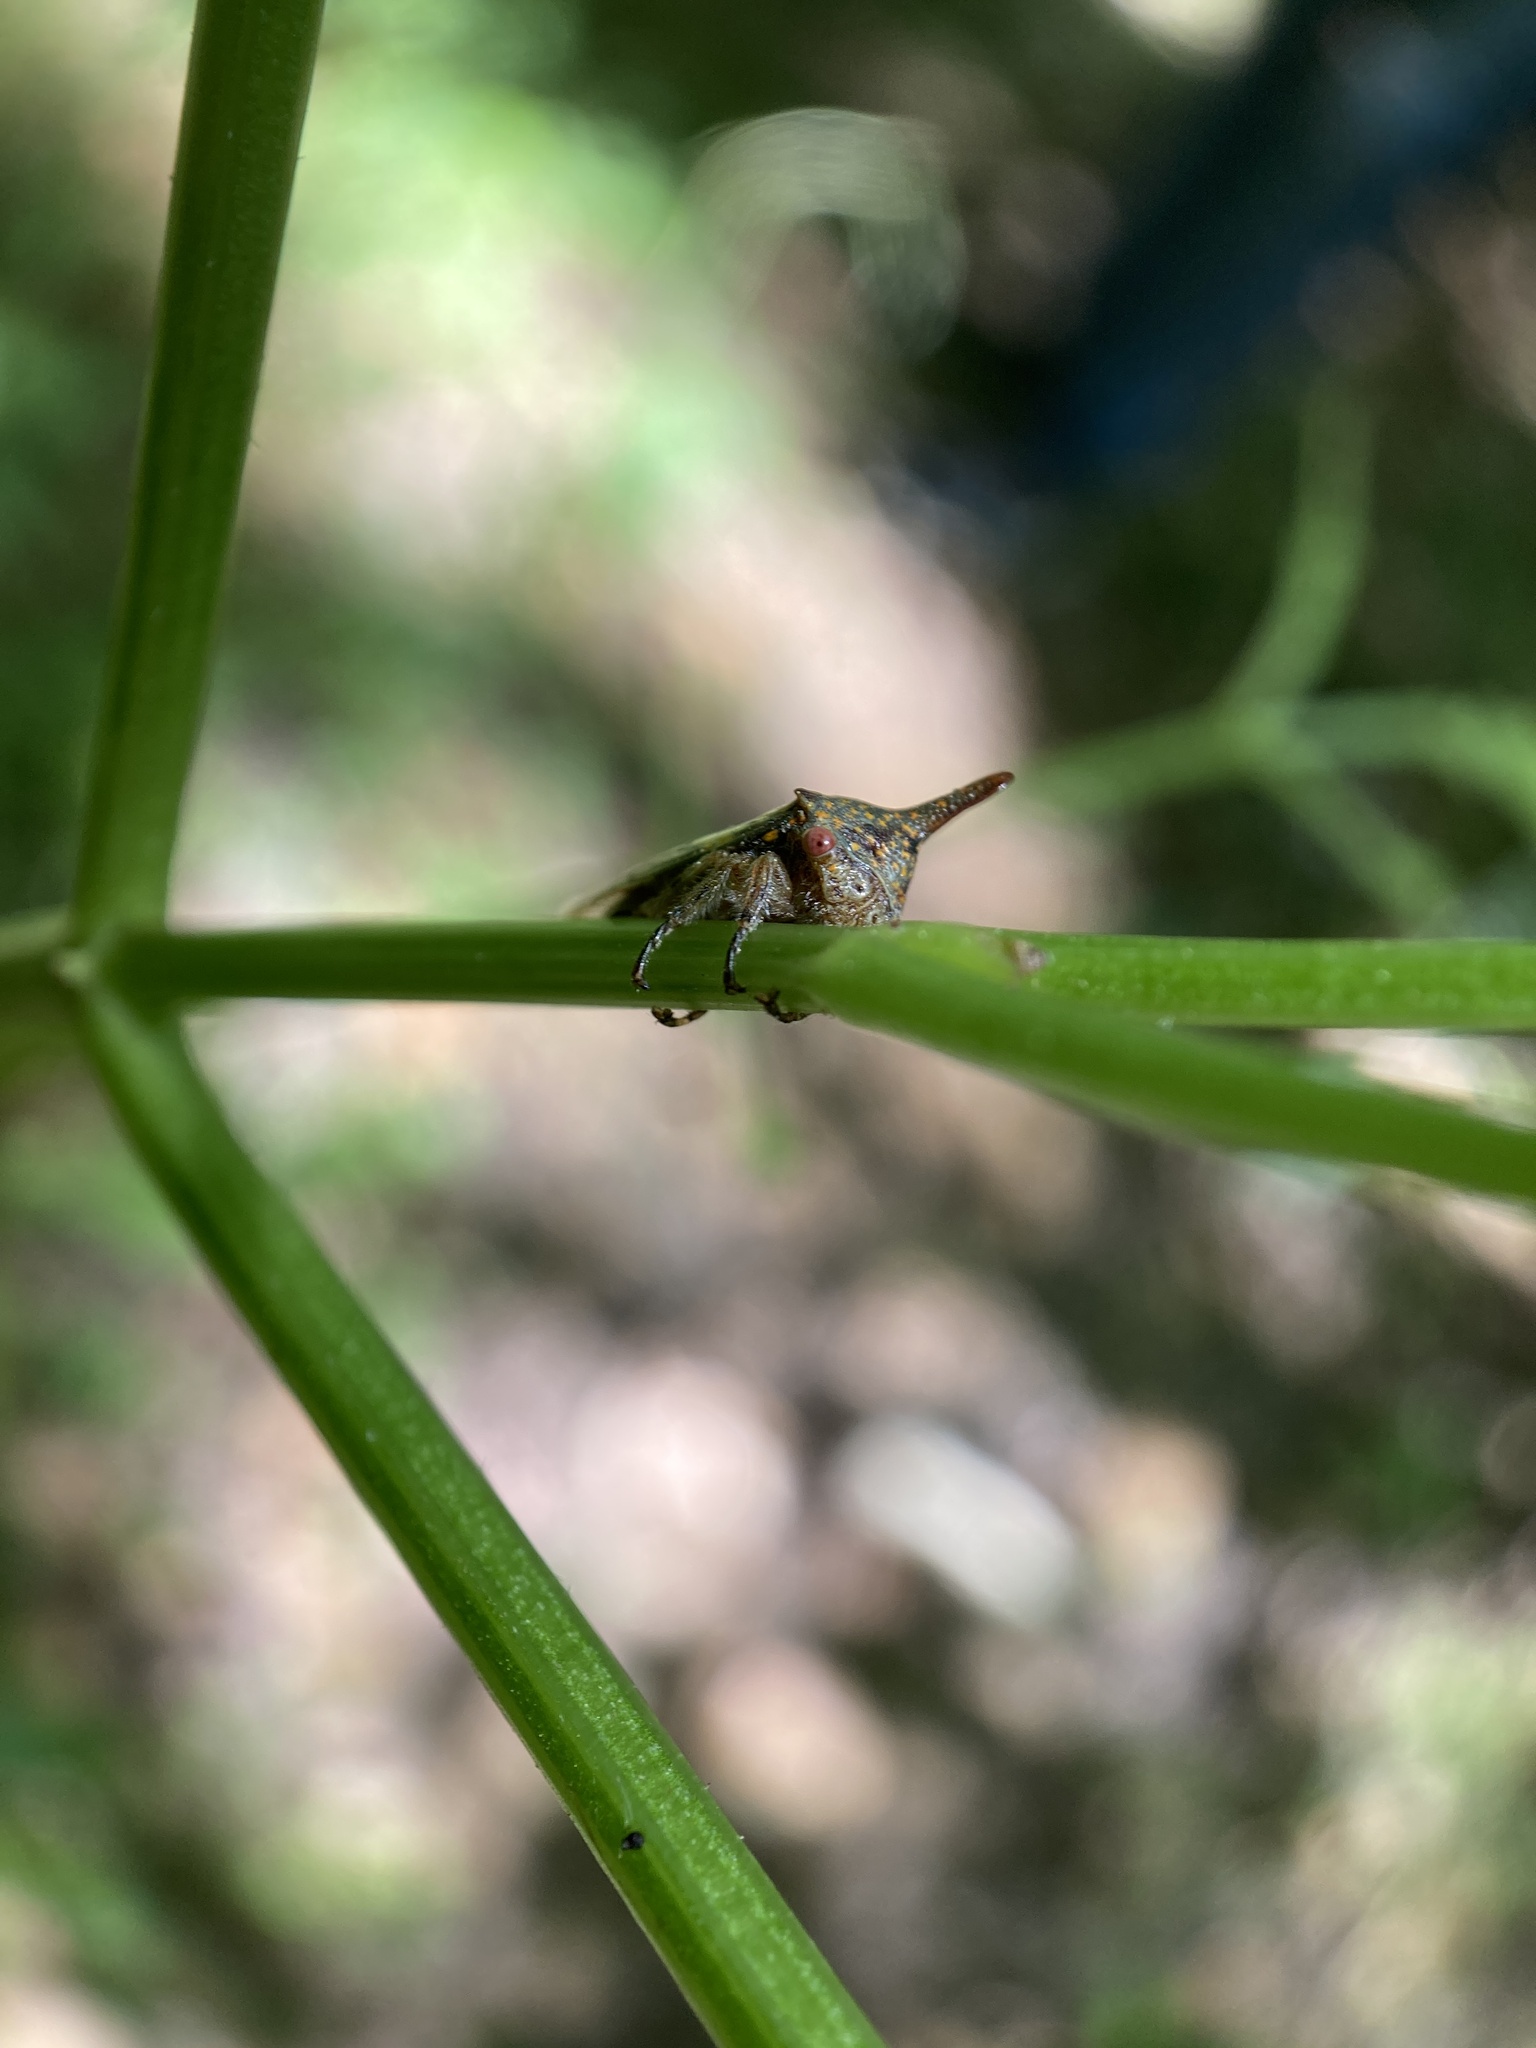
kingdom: Animalia
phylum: Arthropoda
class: Insecta
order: Hemiptera
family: Membracidae
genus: Platycotis
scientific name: Platycotis vittatus
